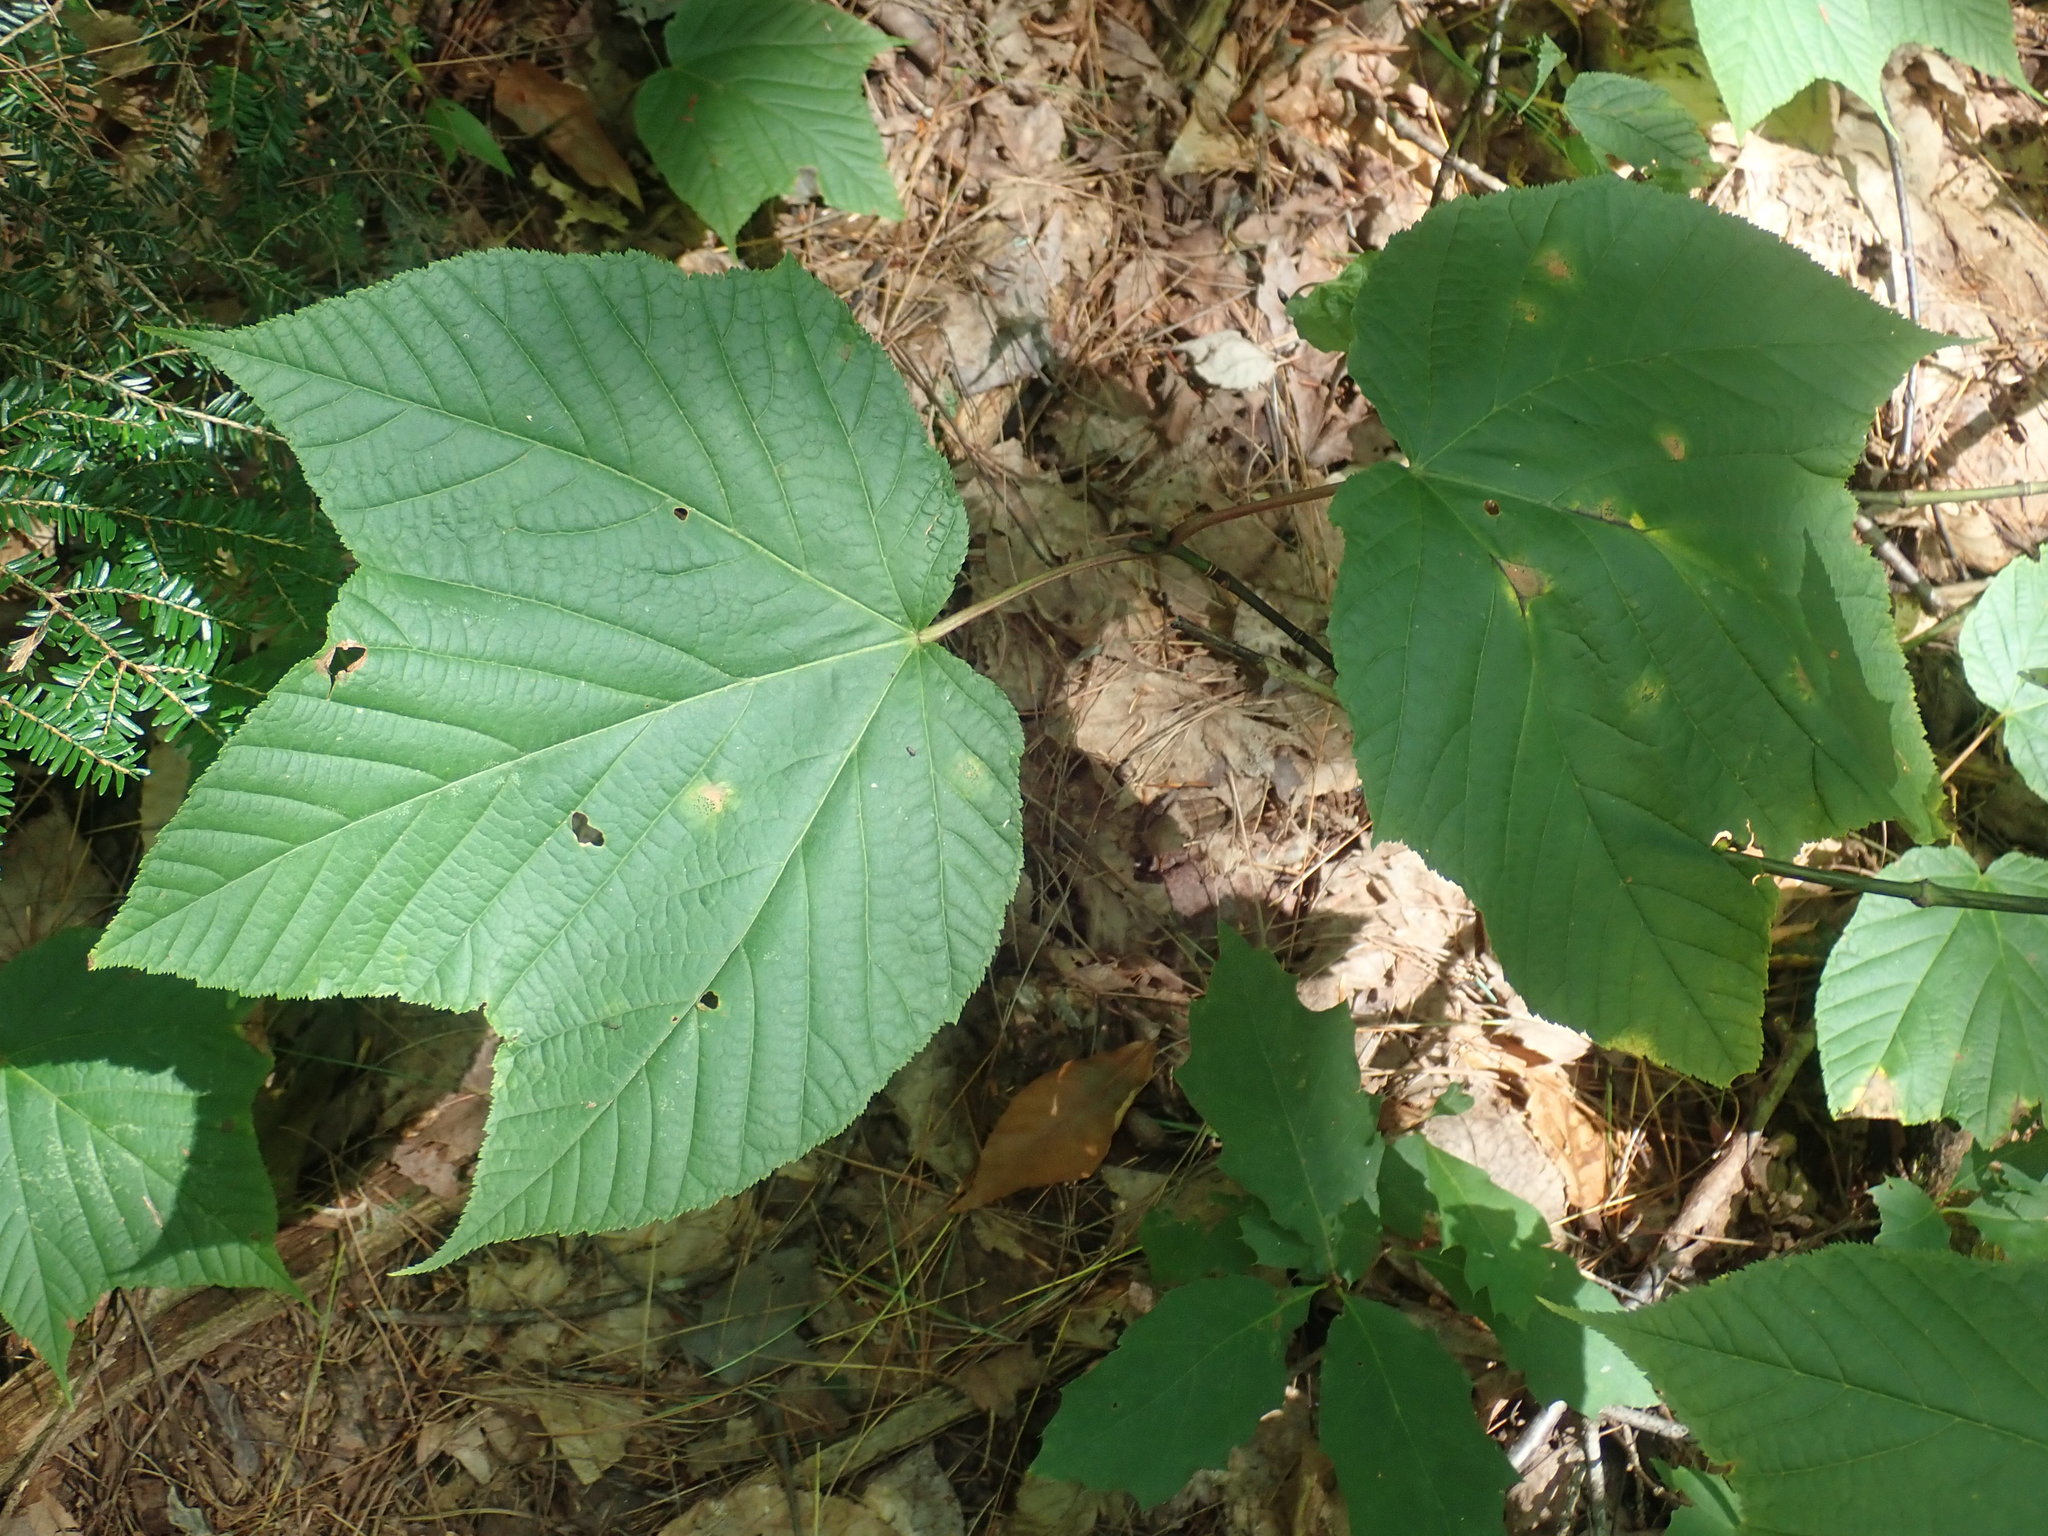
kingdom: Plantae
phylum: Tracheophyta
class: Magnoliopsida
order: Sapindales
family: Sapindaceae
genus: Acer
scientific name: Acer pensylvanicum
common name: Moosewood
